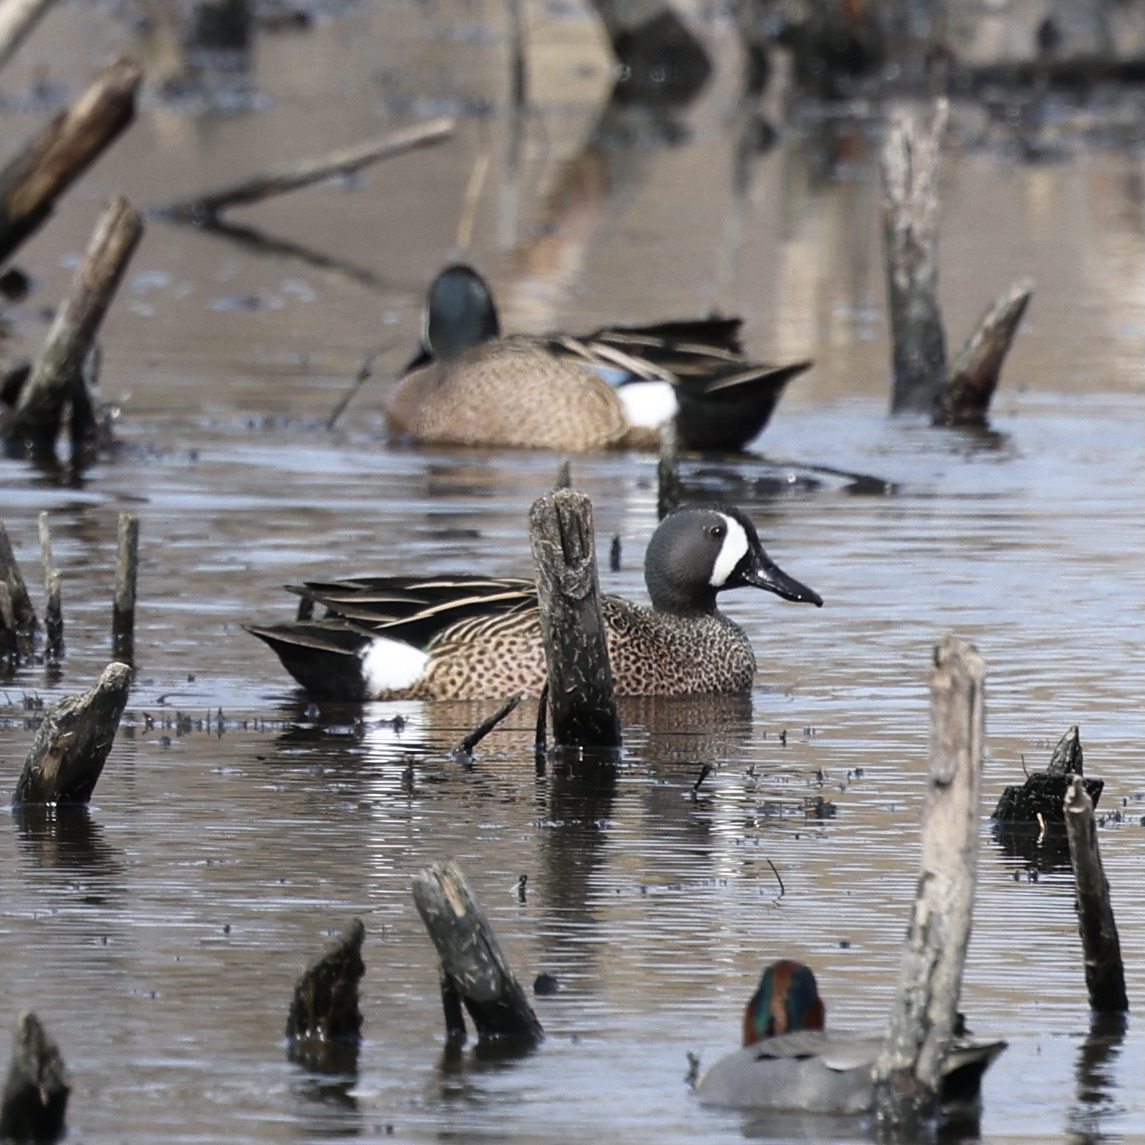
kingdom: Animalia
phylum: Chordata
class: Aves
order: Anseriformes
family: Anatidae
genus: Spatula
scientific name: Spatula discors
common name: Blue-winged teal
